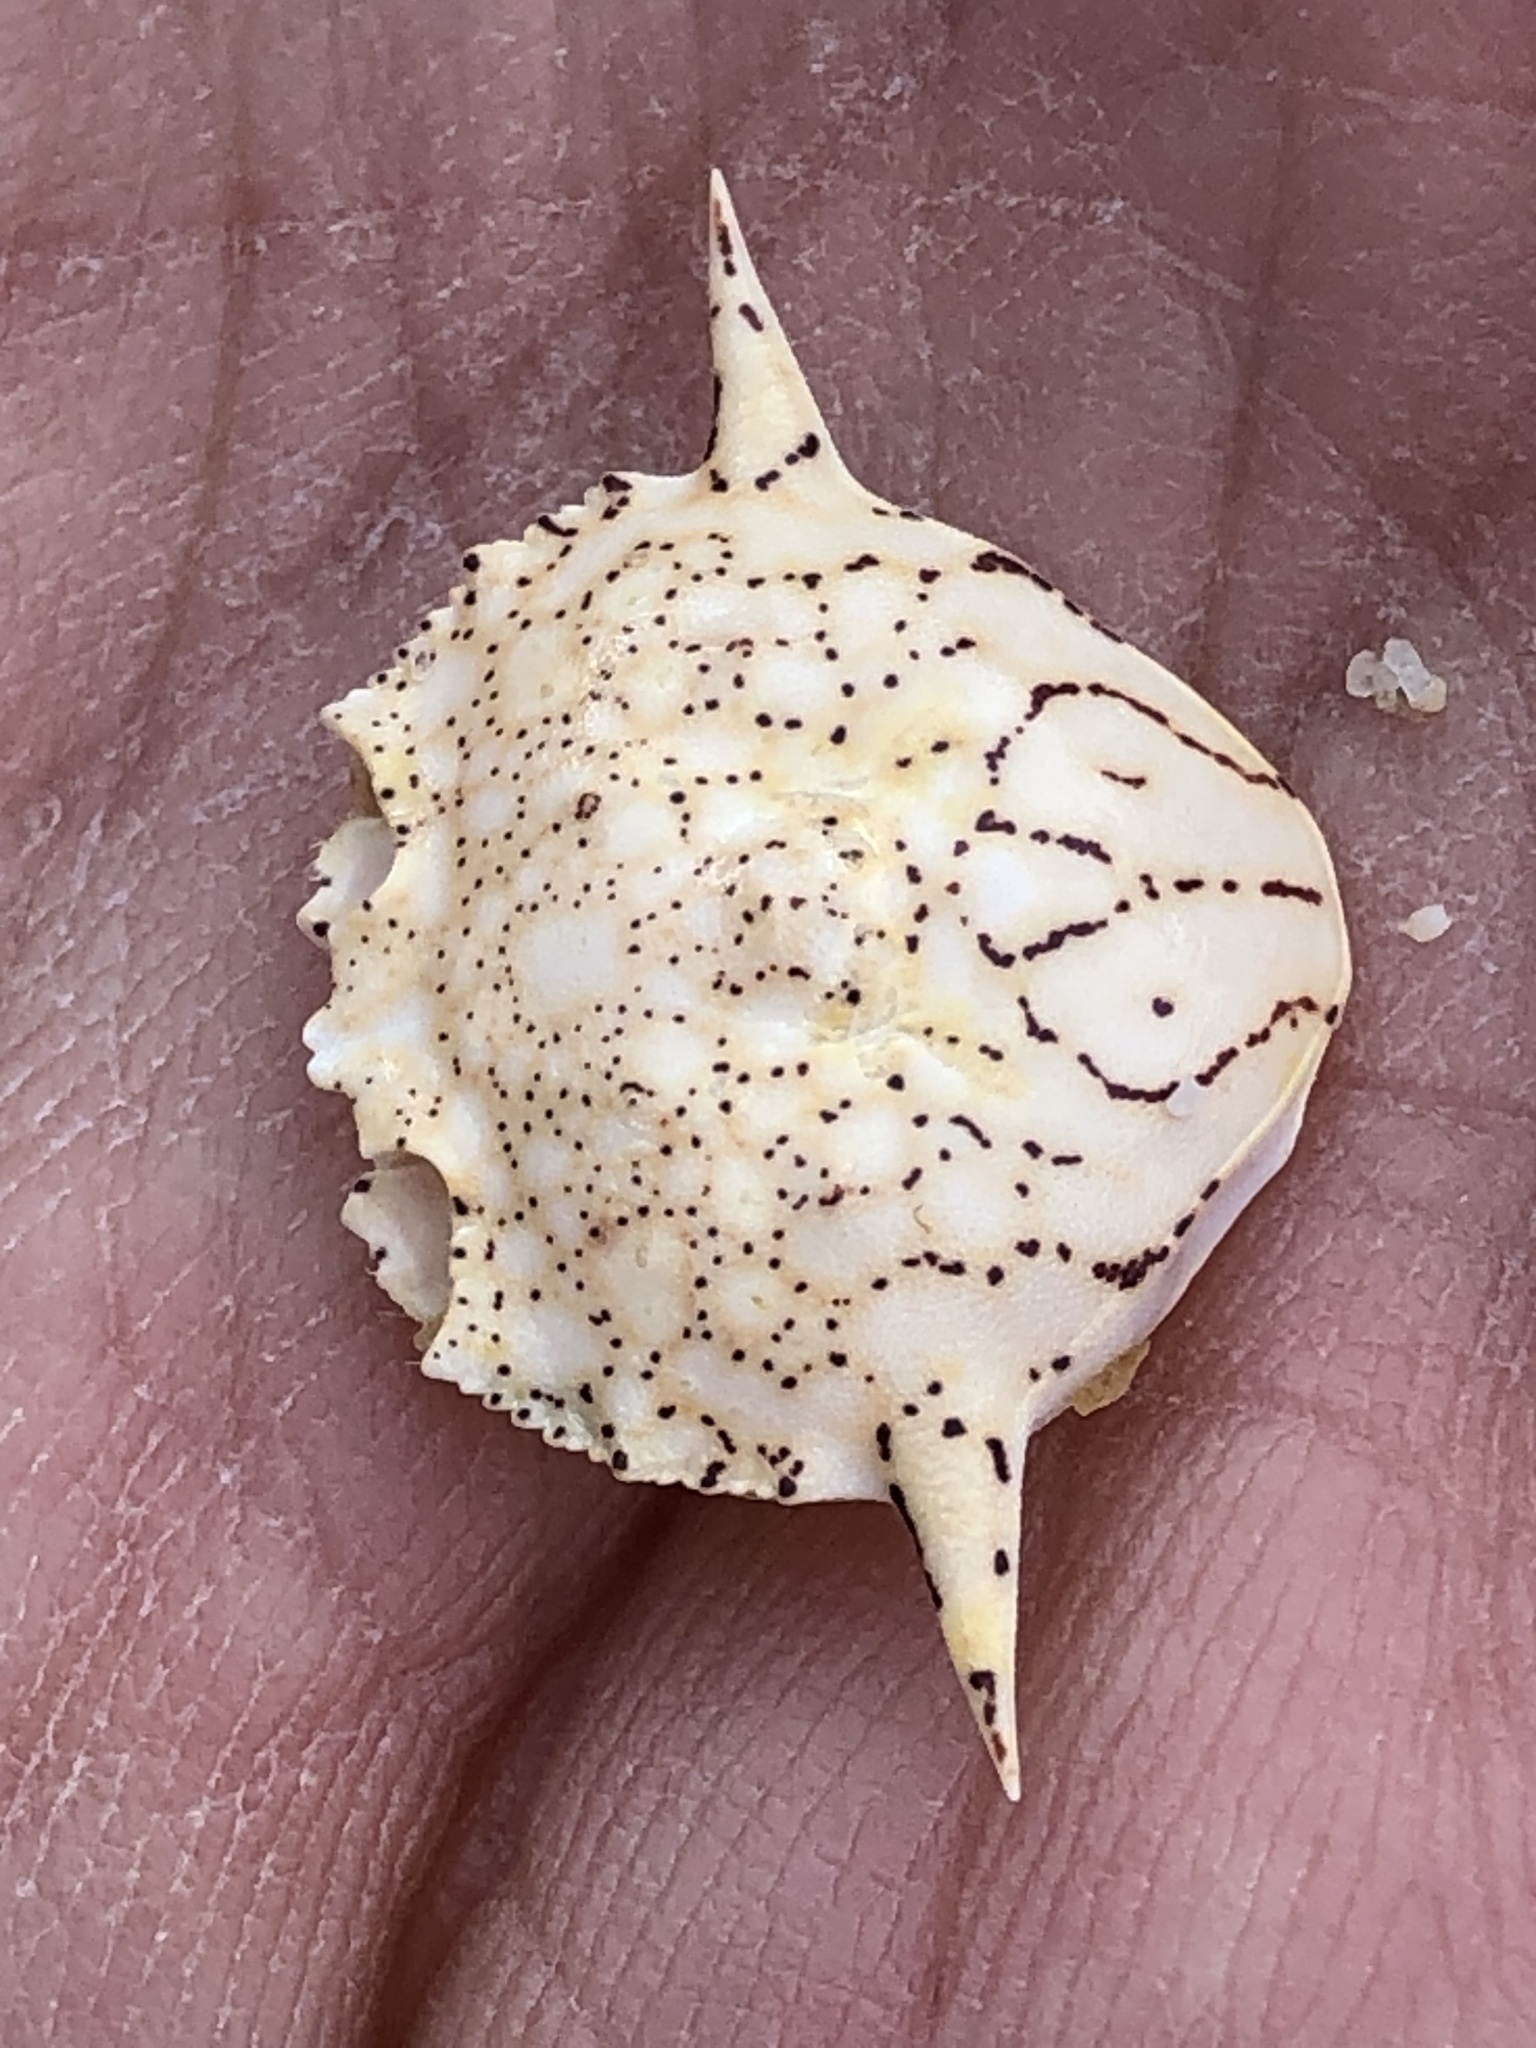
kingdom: Animalia
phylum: Arthropoda
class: Malacostraca
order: Decapoda
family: Matutidae
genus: Matuta
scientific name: Matuta planipes
